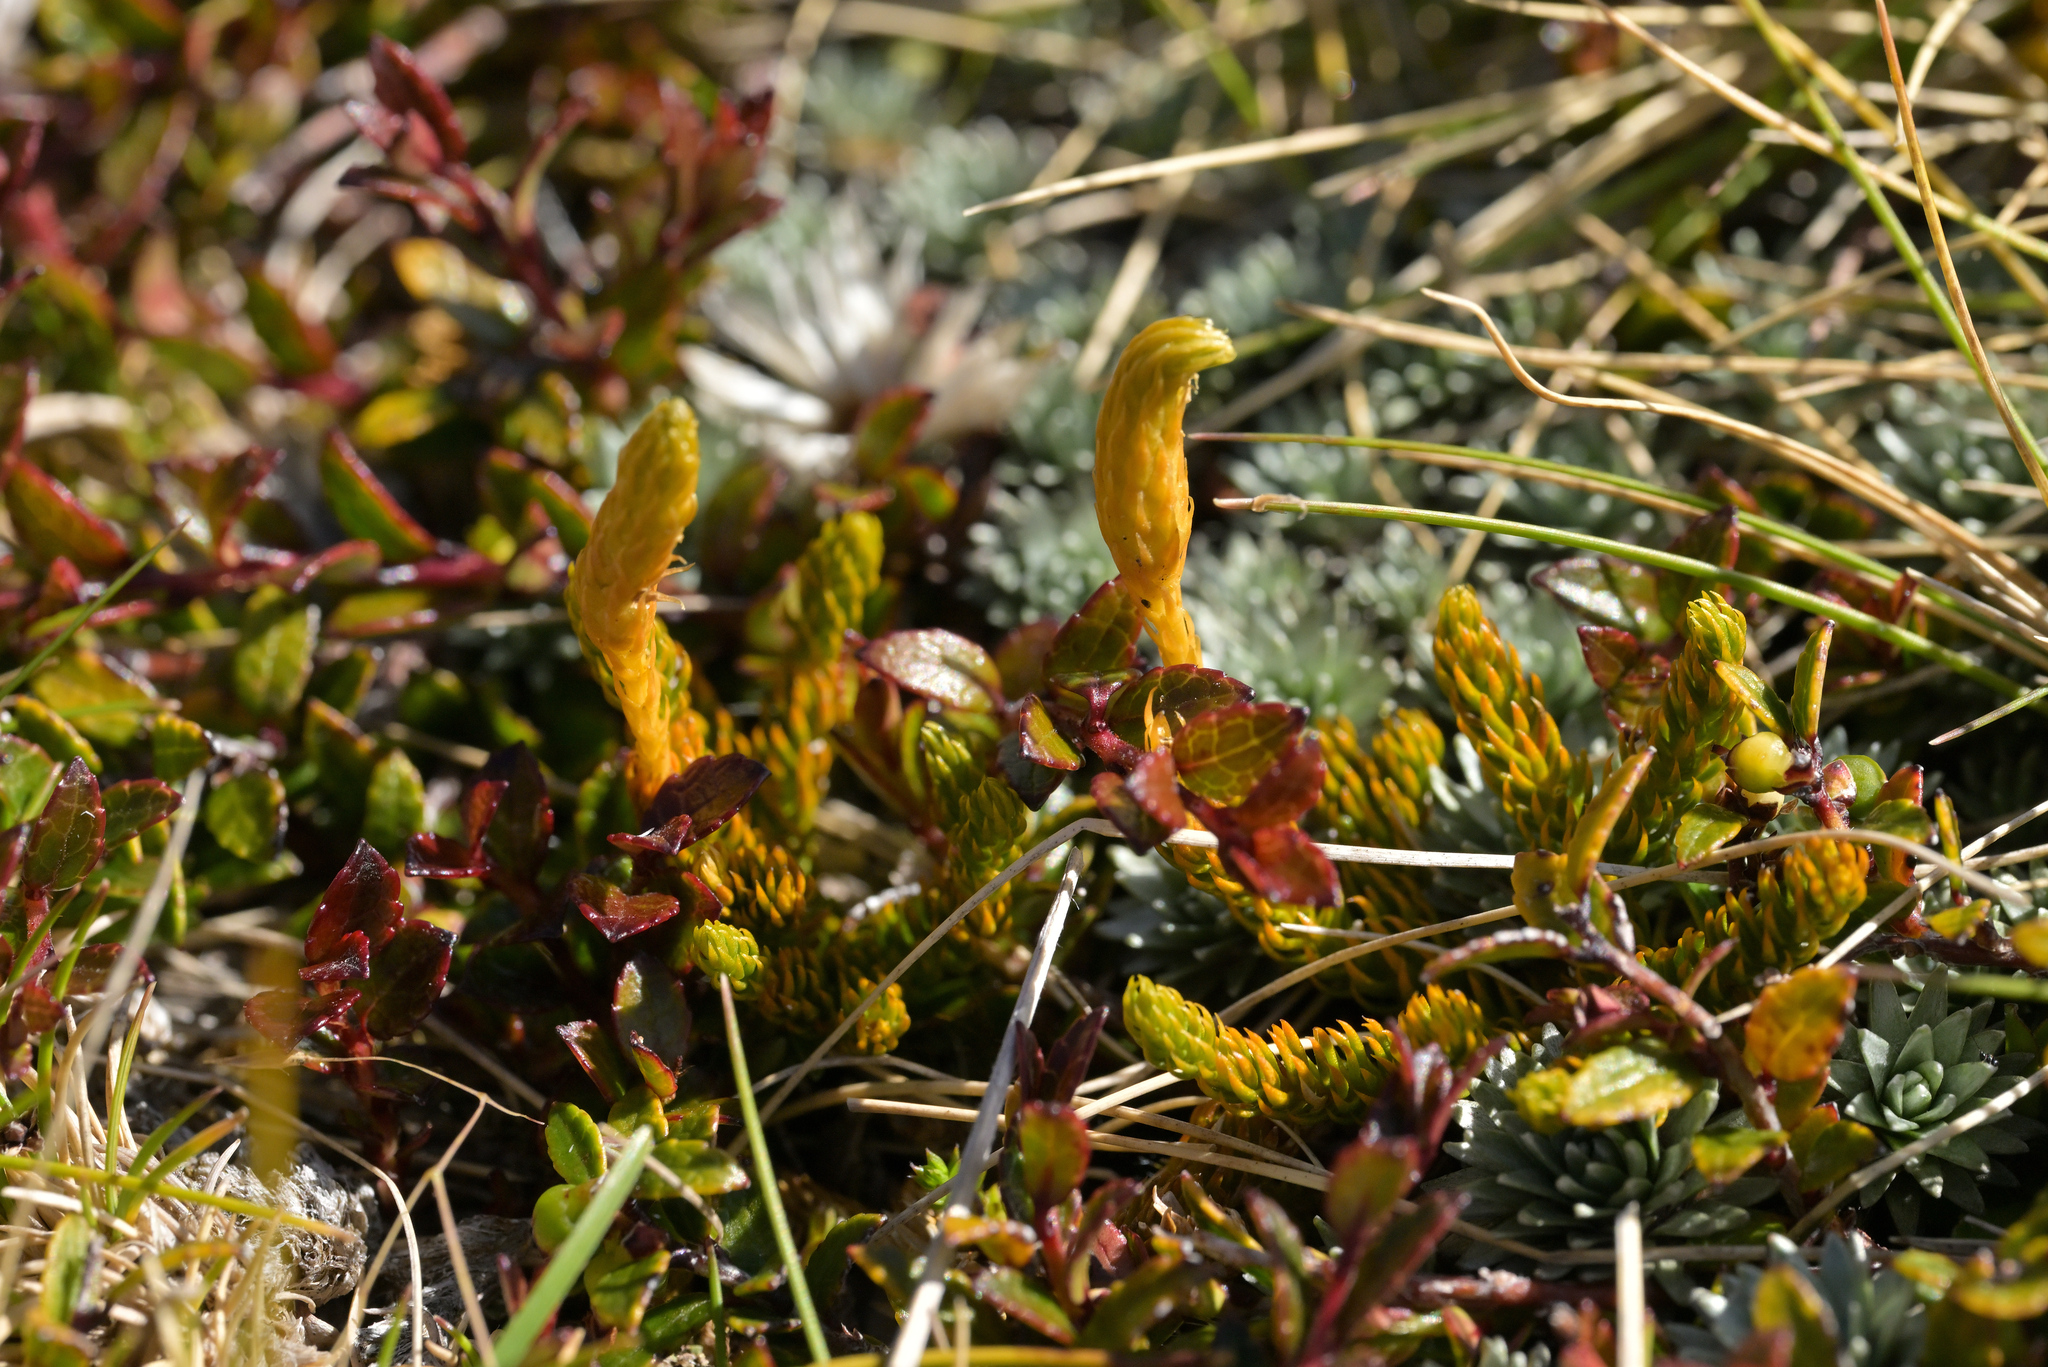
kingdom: Plantae
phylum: Tracheophyta
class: Lycopodiopsida
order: Lycopodiales
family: Lycopodiaceae
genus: Austrolycopodium
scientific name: Austrolycopodium fastigiatum
